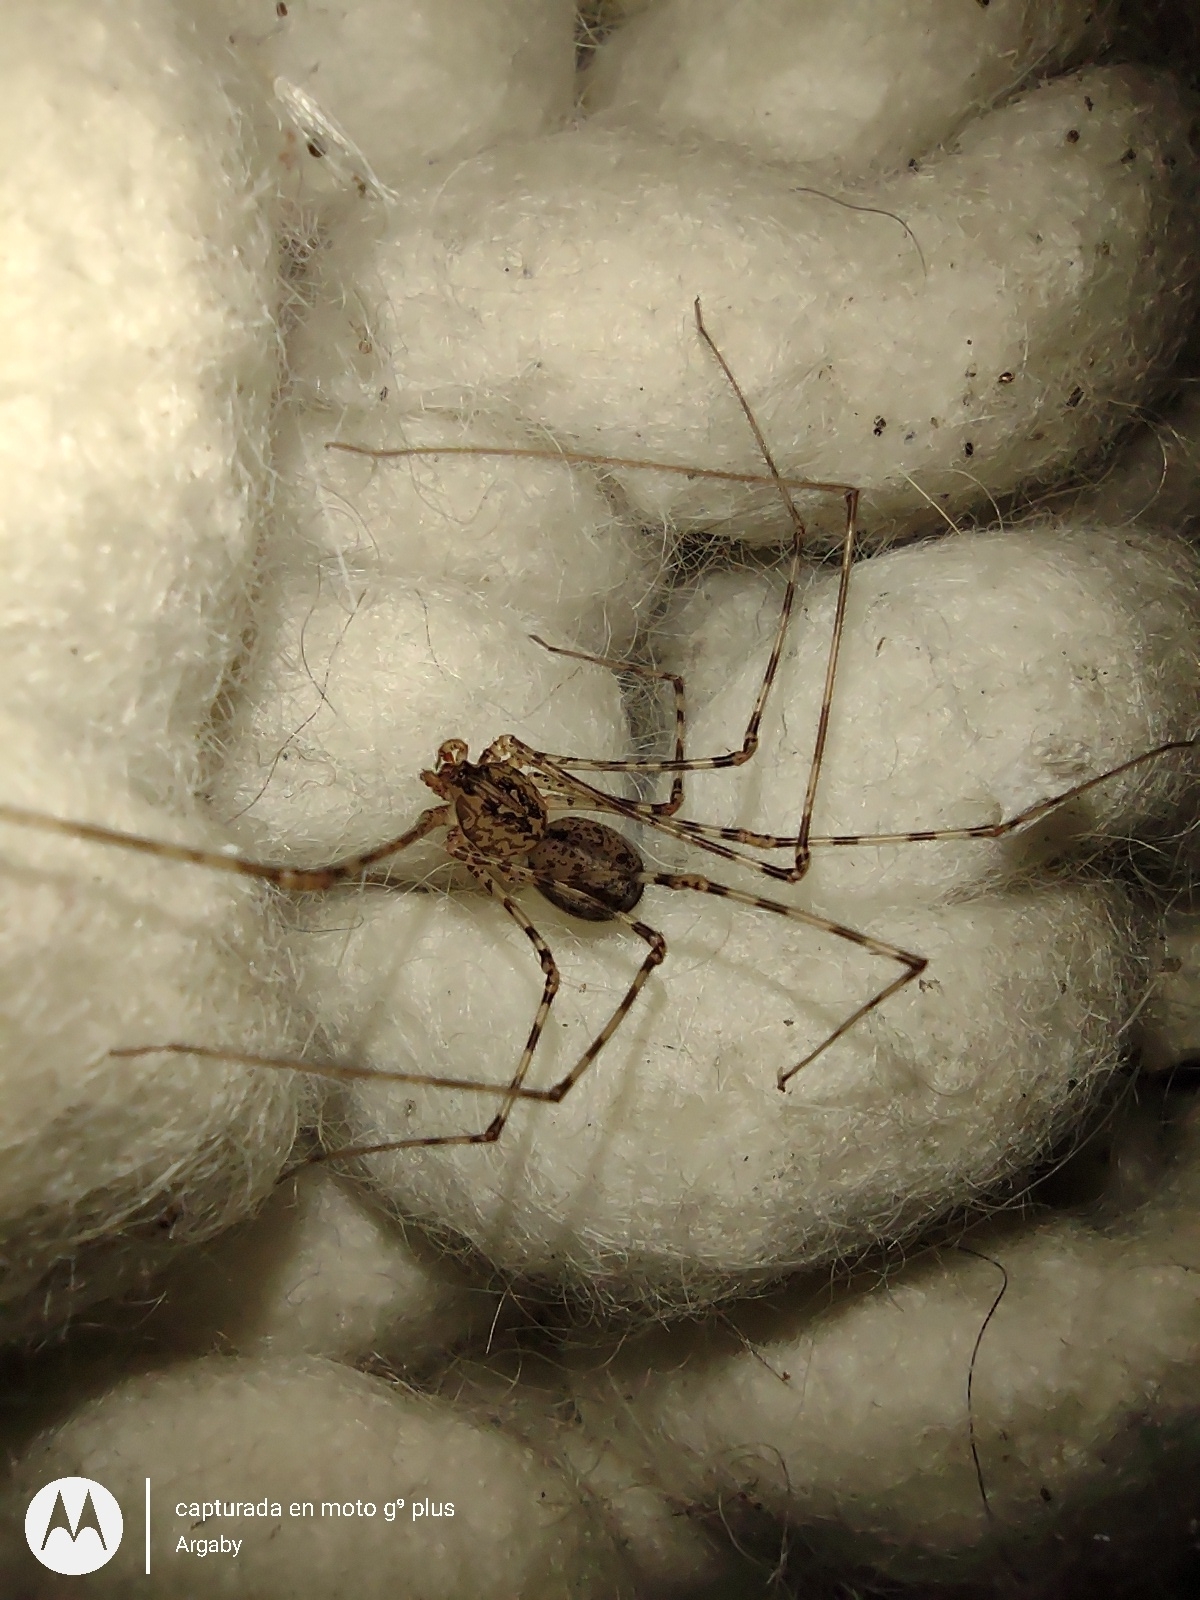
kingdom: Animalia
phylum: Arthropoda
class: Arachnida
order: Araneae
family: Scytodidae
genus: Scytodes
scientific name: Scytodes globula
